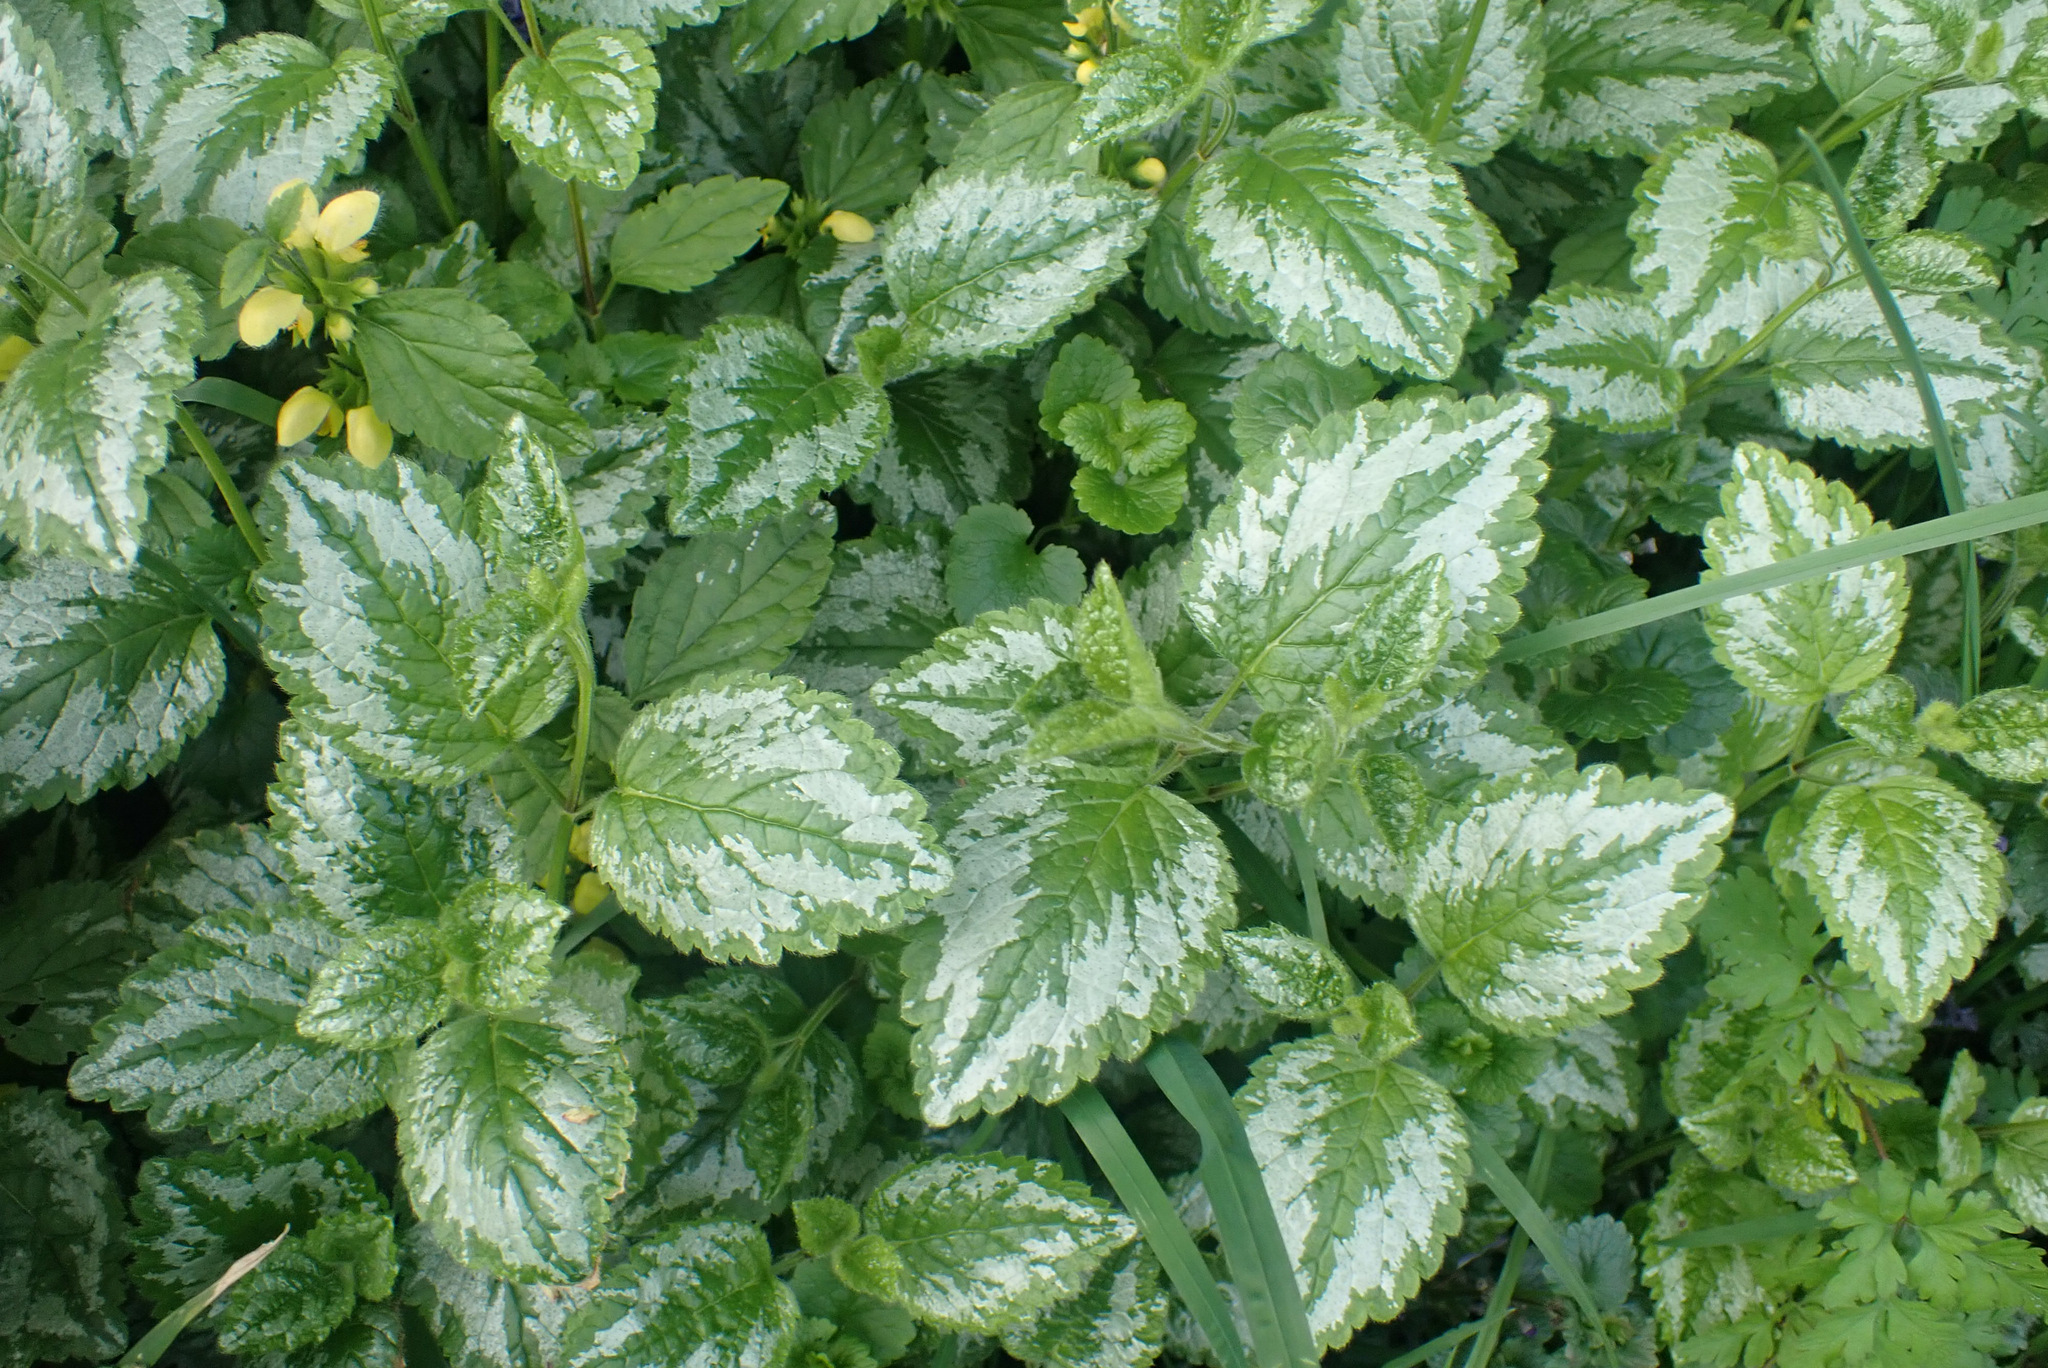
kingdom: Plantae
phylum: Tracheophyta
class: Magnoliopsida
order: Lamiales
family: Lamiaceae
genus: Lamium
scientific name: Lamium galeobdolon
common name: Yellow archangel
